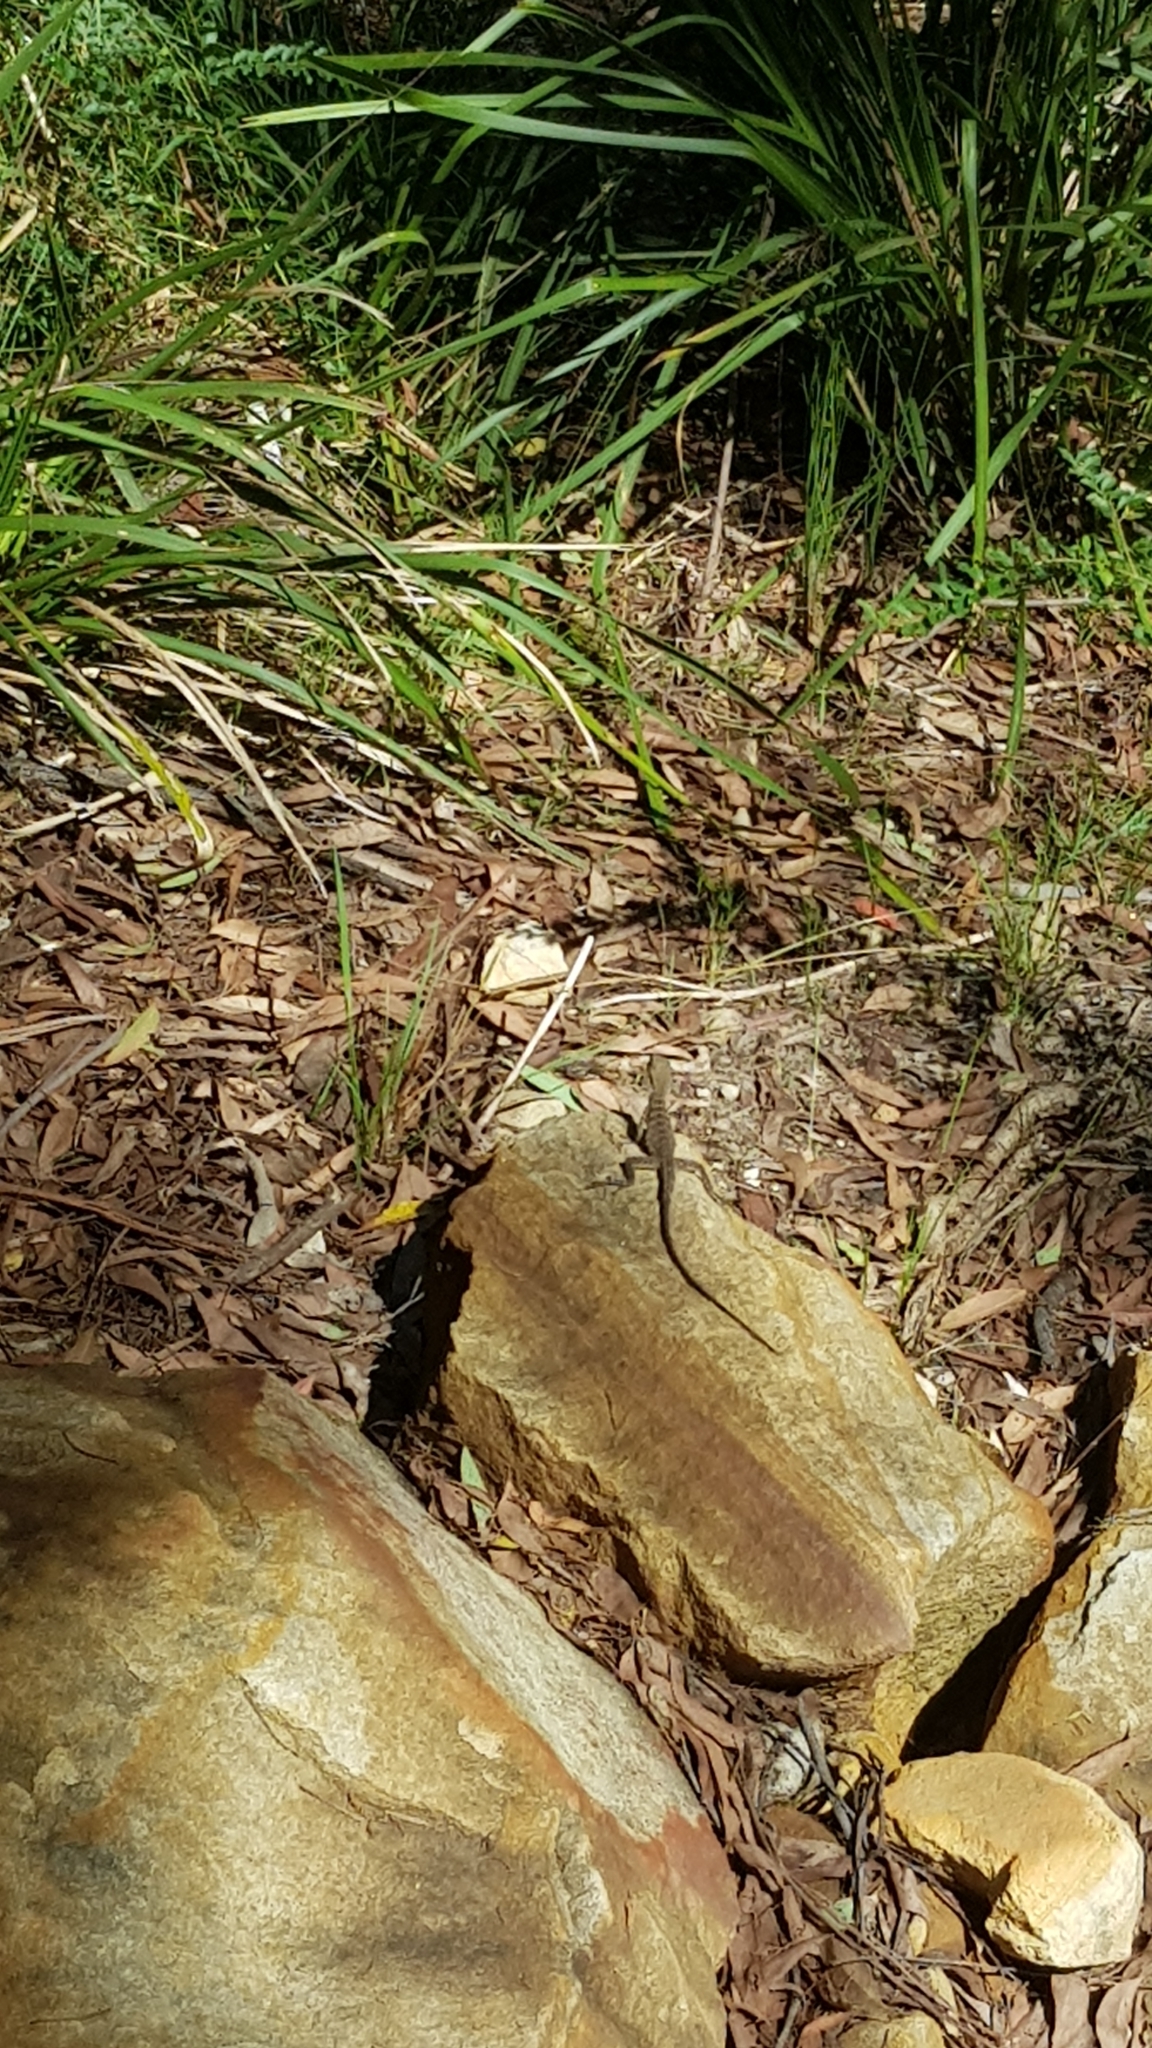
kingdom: Animalia
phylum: Chordata
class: Squamata
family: Agamidae
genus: Intellagama
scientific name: Intellagama lesueurii
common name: Eastern water dragon
